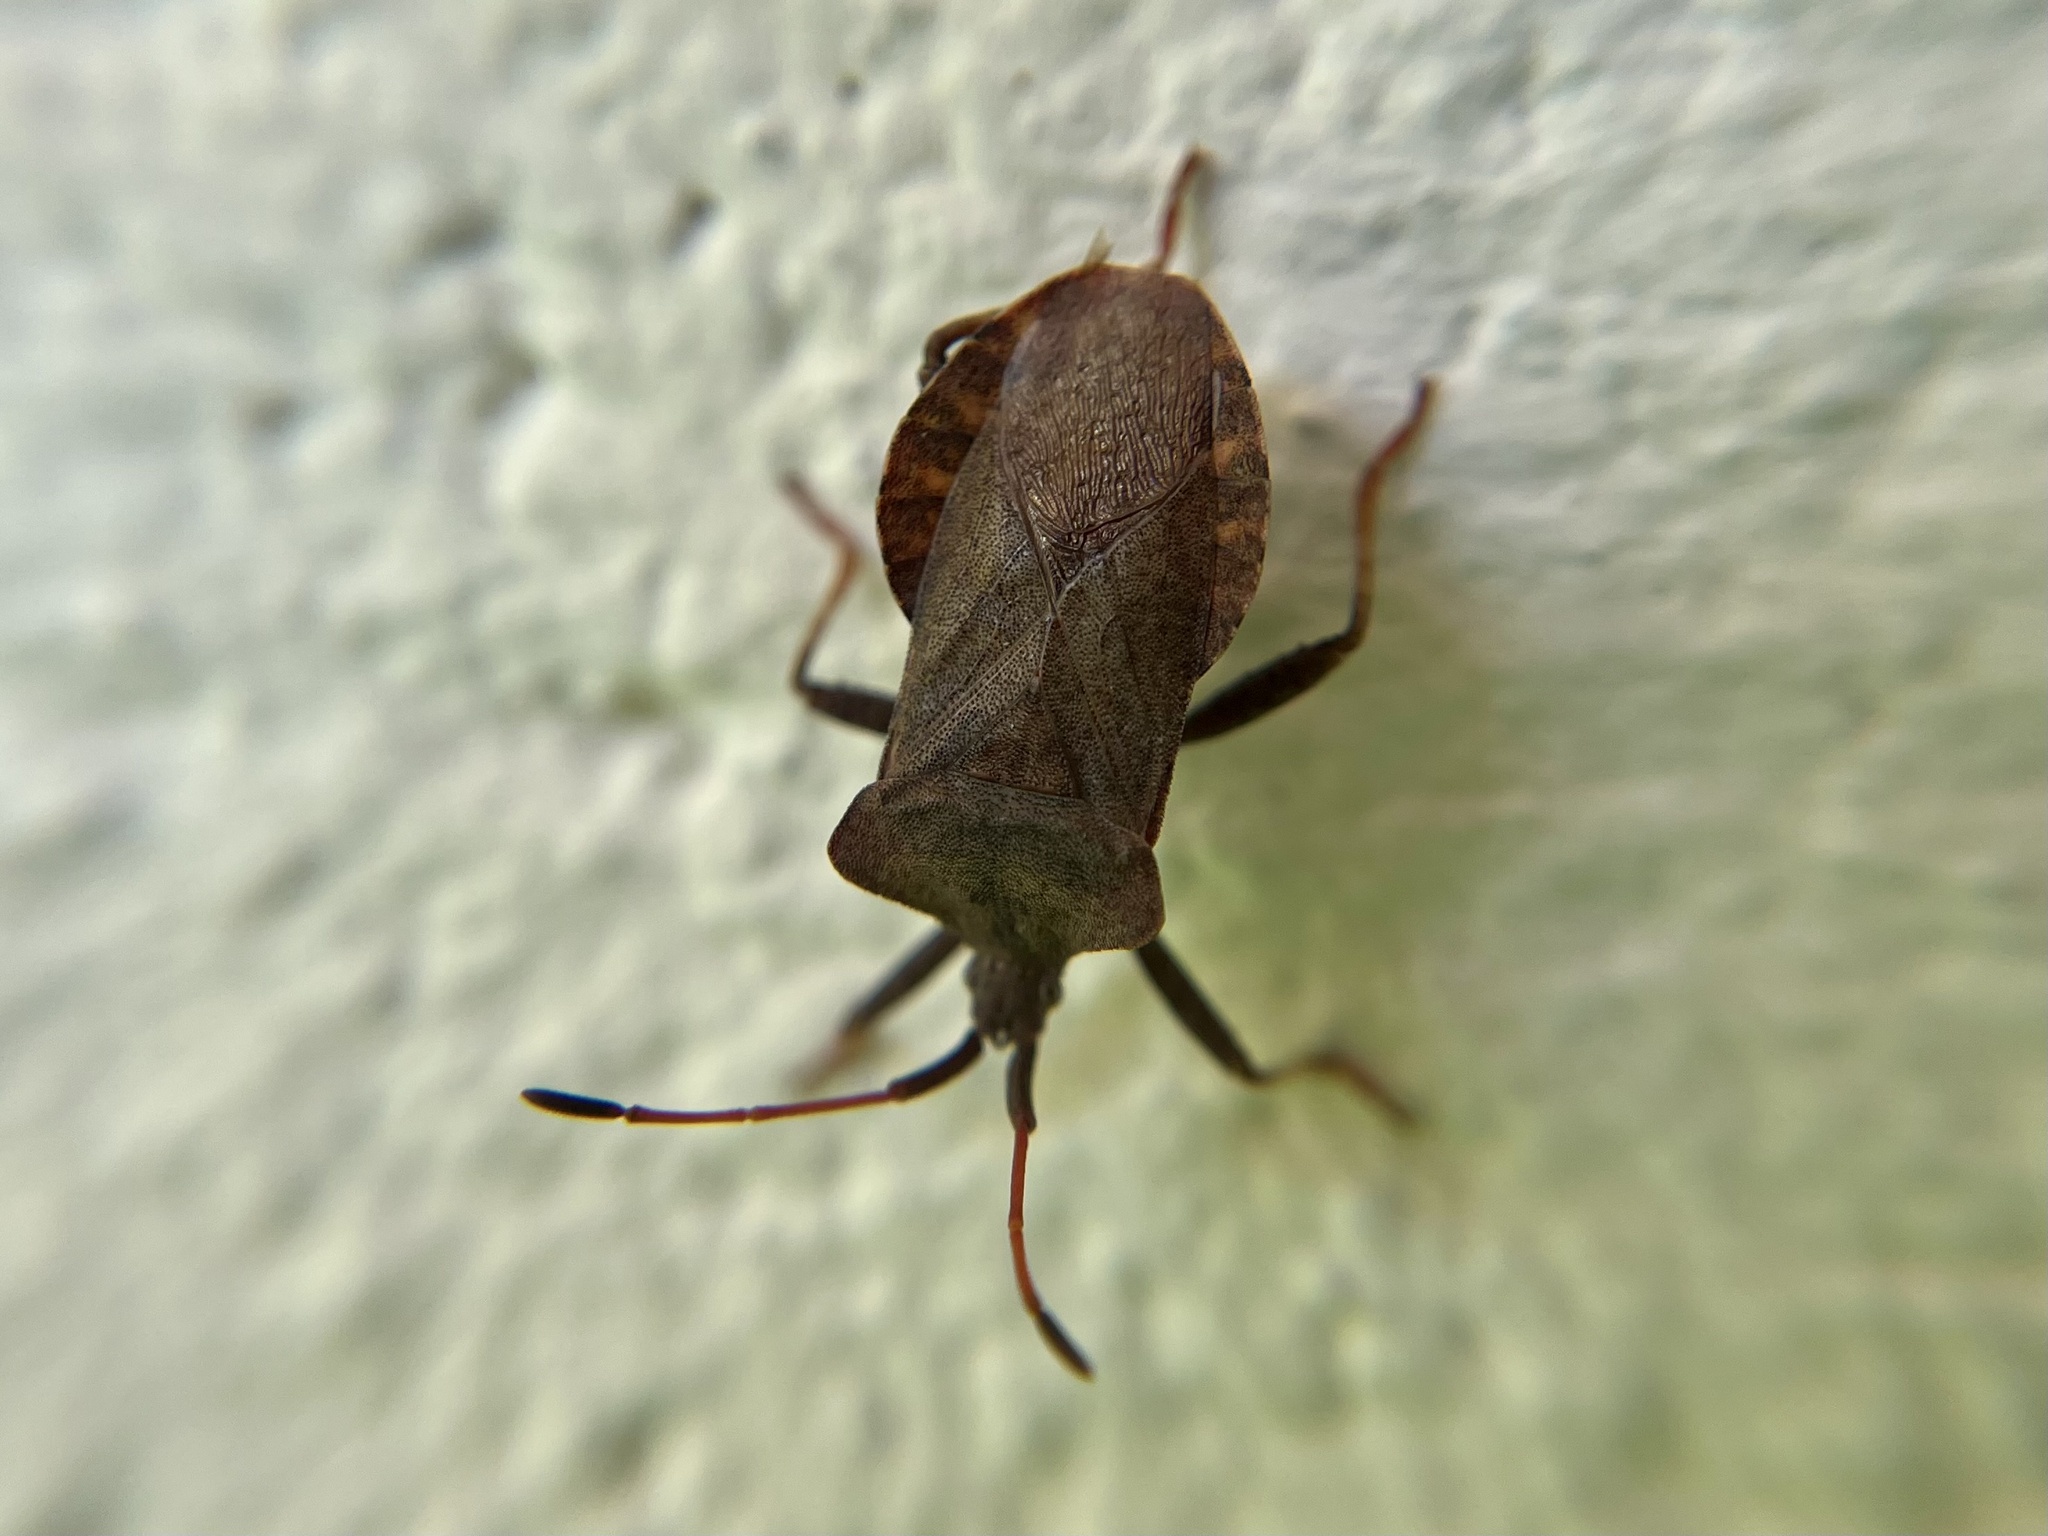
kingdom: Animalia
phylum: Arthropoda
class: Insecta
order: Hemiptera
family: Coreidae
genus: Coreus
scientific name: Coreus marginatus
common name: Dock bug
